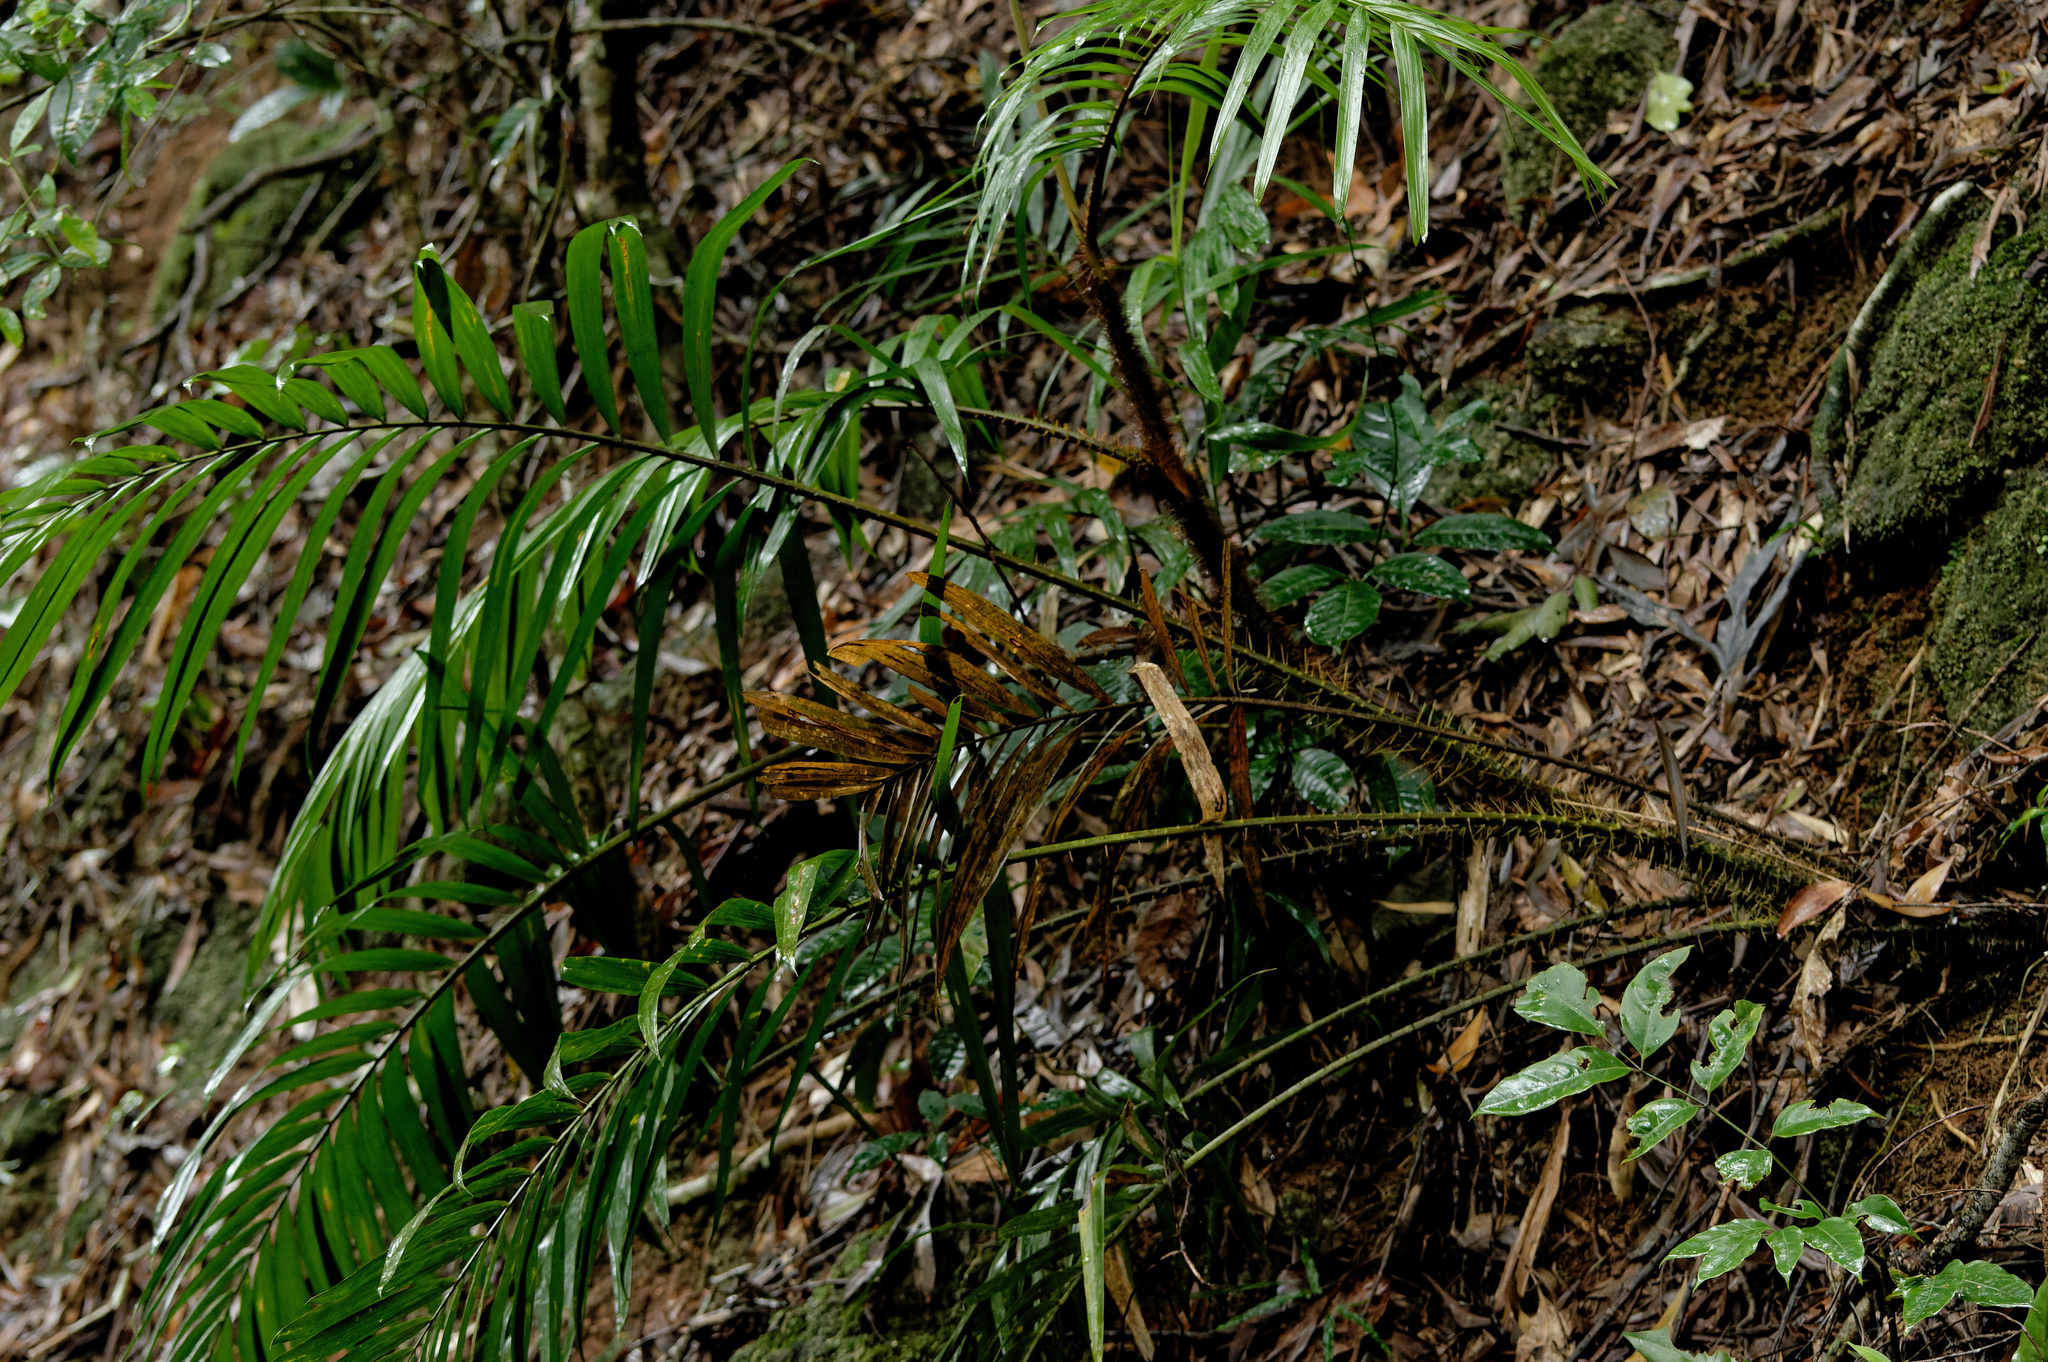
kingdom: Plantae
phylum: Tracheophyta
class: Liliopsida
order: Arecales
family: Arecaceae
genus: Calamus
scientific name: Calamus moti
